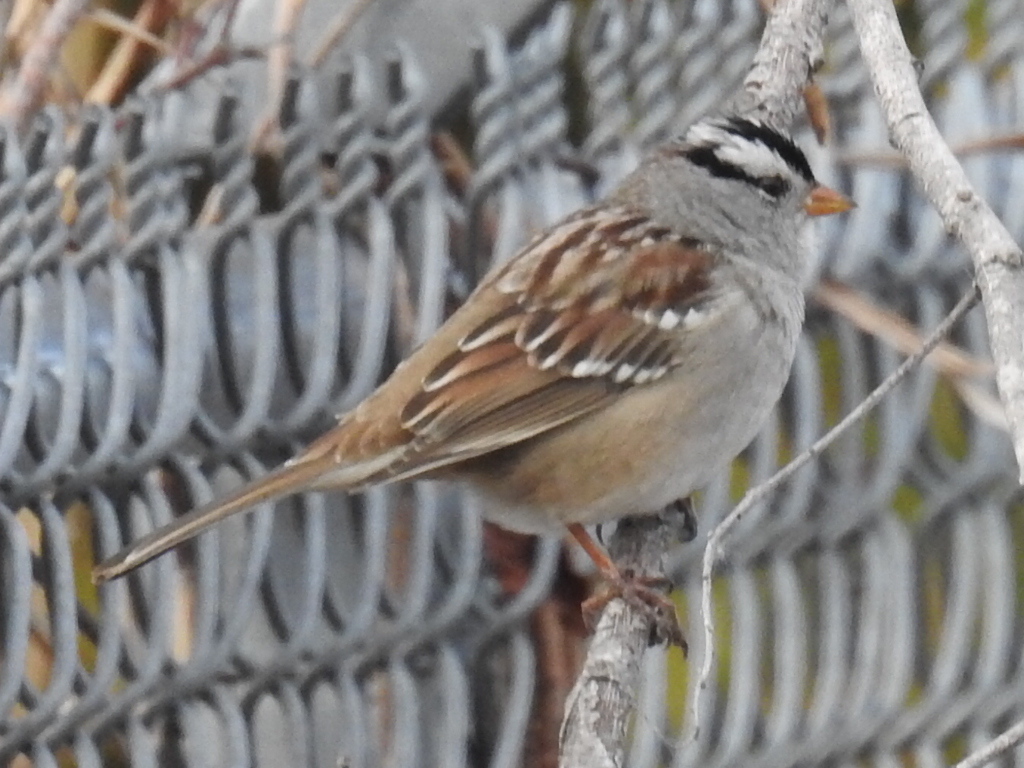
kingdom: Animalia
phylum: Chordata
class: Aves
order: Passeriformes
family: Passerellidae
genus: Zonotrichia
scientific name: Zonotrichia leucophrys
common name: White-crowned sparrow
